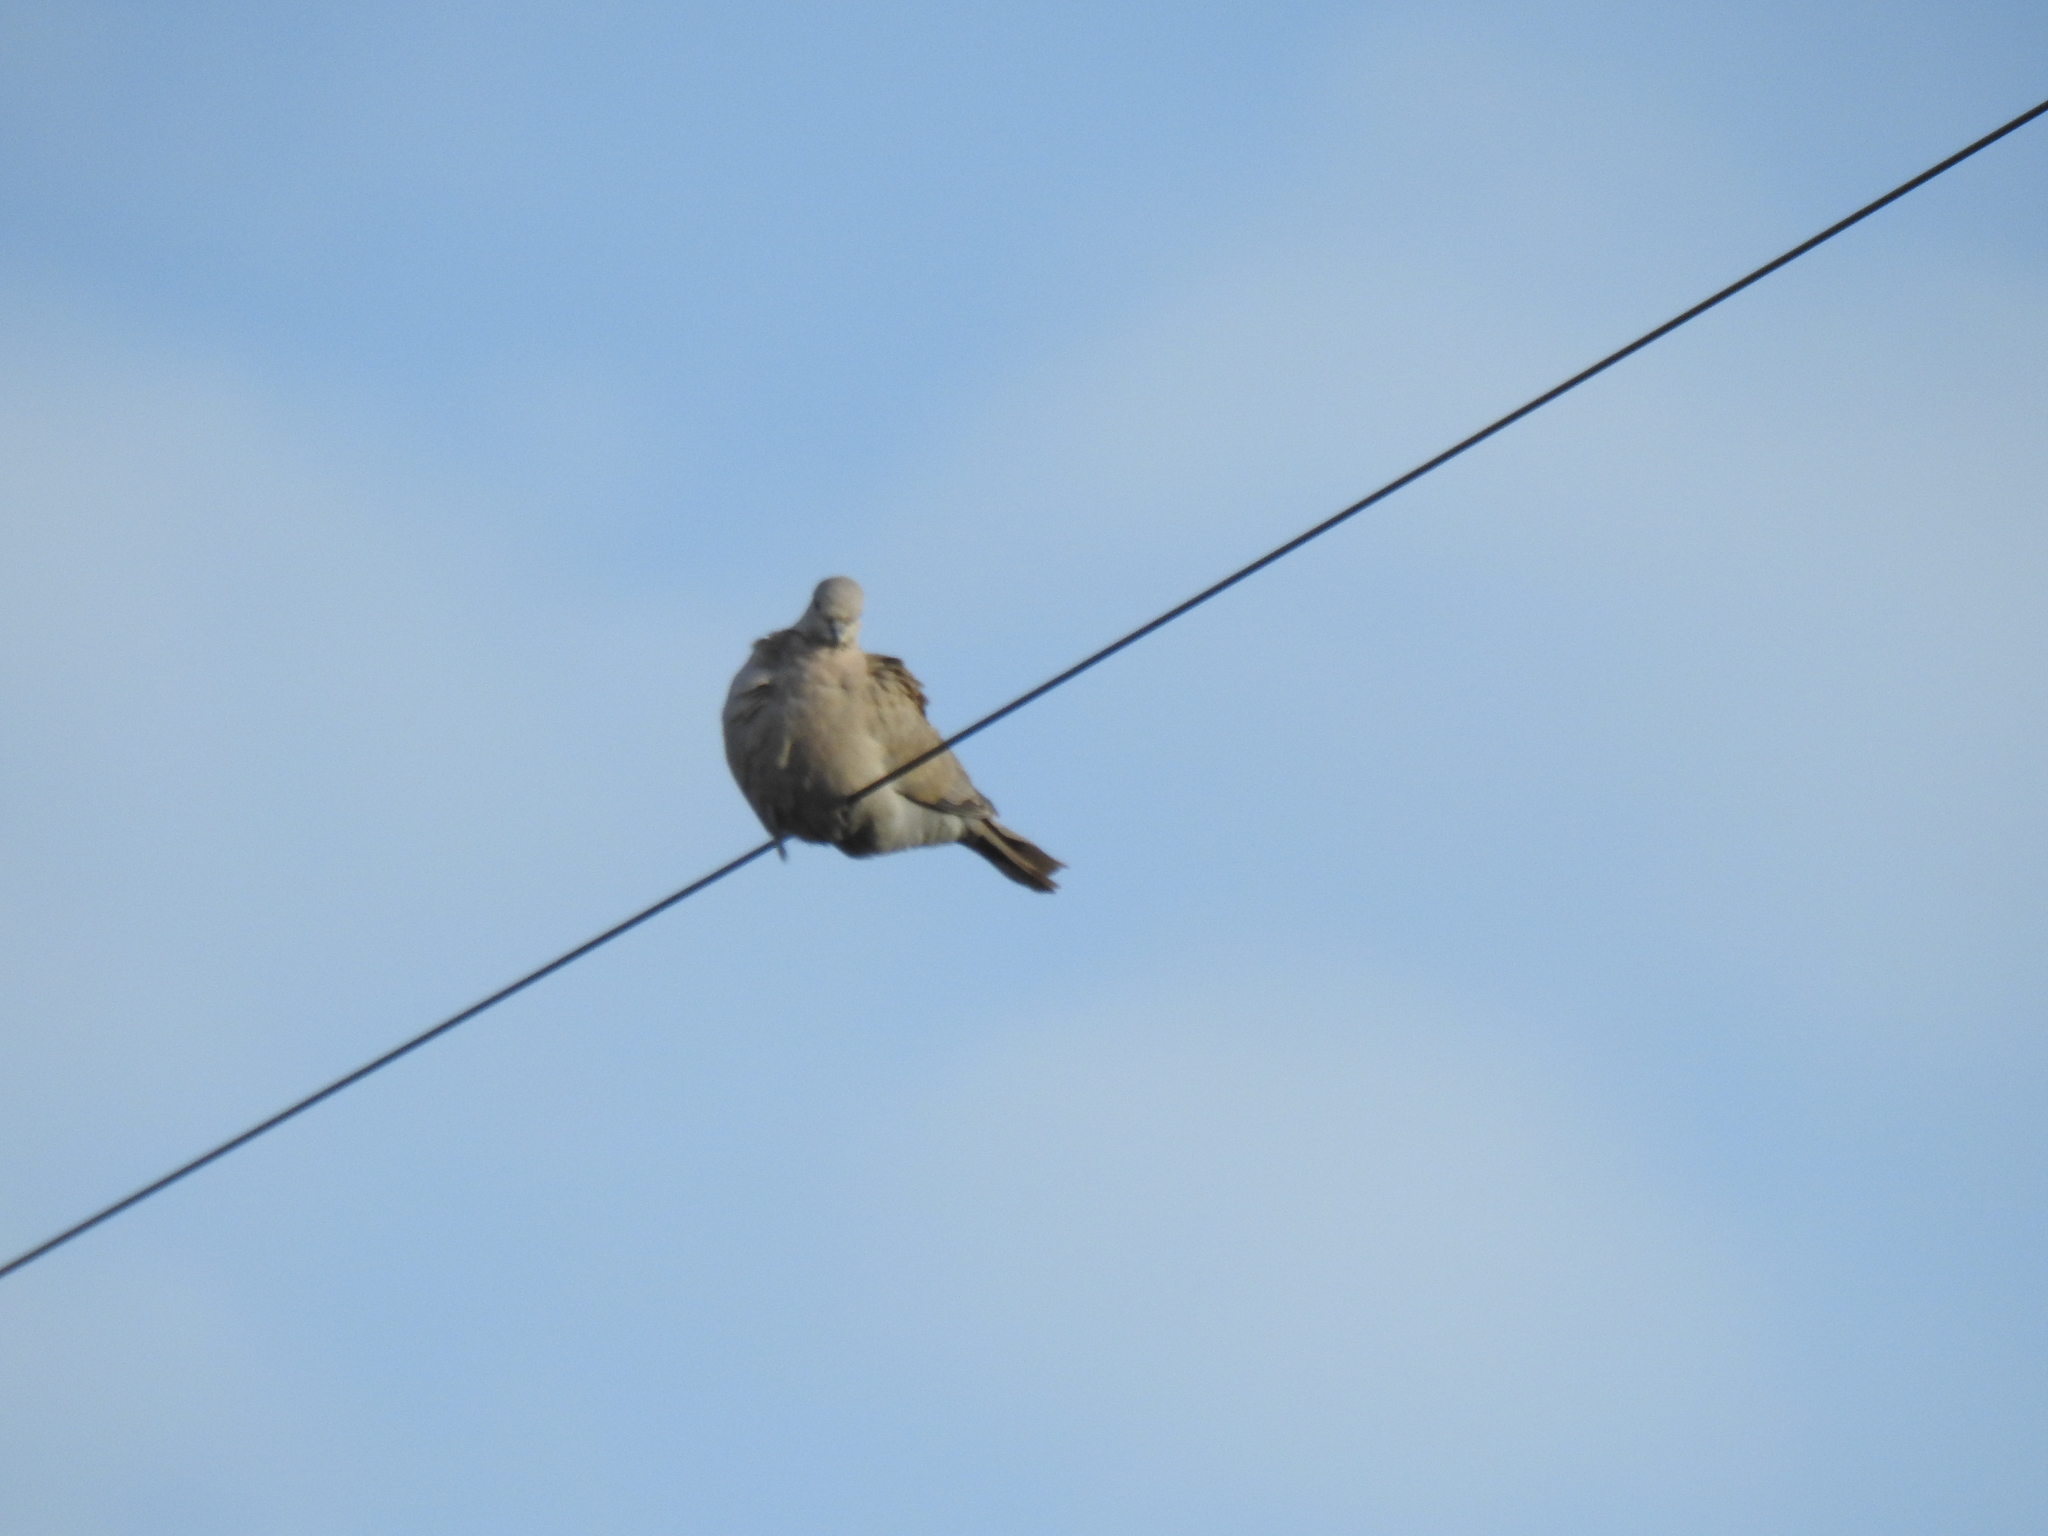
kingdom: Animalia
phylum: Chordata
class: Aves
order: Columbiformes
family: Columbidae
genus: Streptopelia
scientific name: Streptopelia decaocto
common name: Eurasian collared dove
